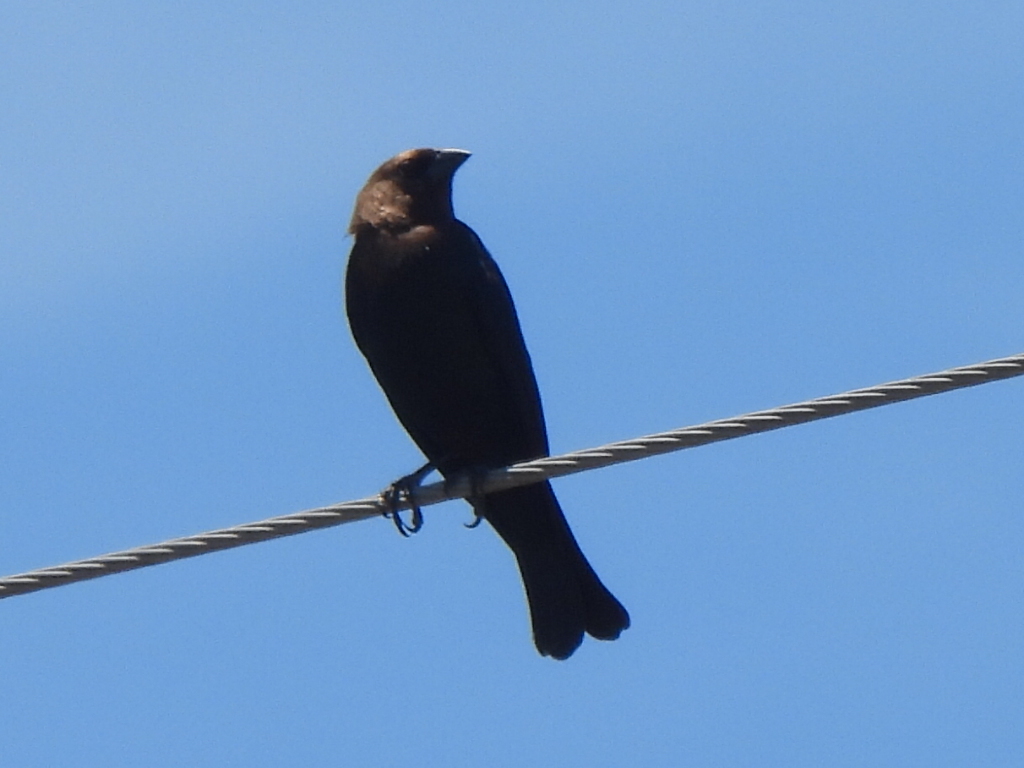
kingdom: Animalia
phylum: Chordata
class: Aves
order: Passeriformes
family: Icteridae
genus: Molothrus
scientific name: Molothrus ater
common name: Brown-headed cowbird
